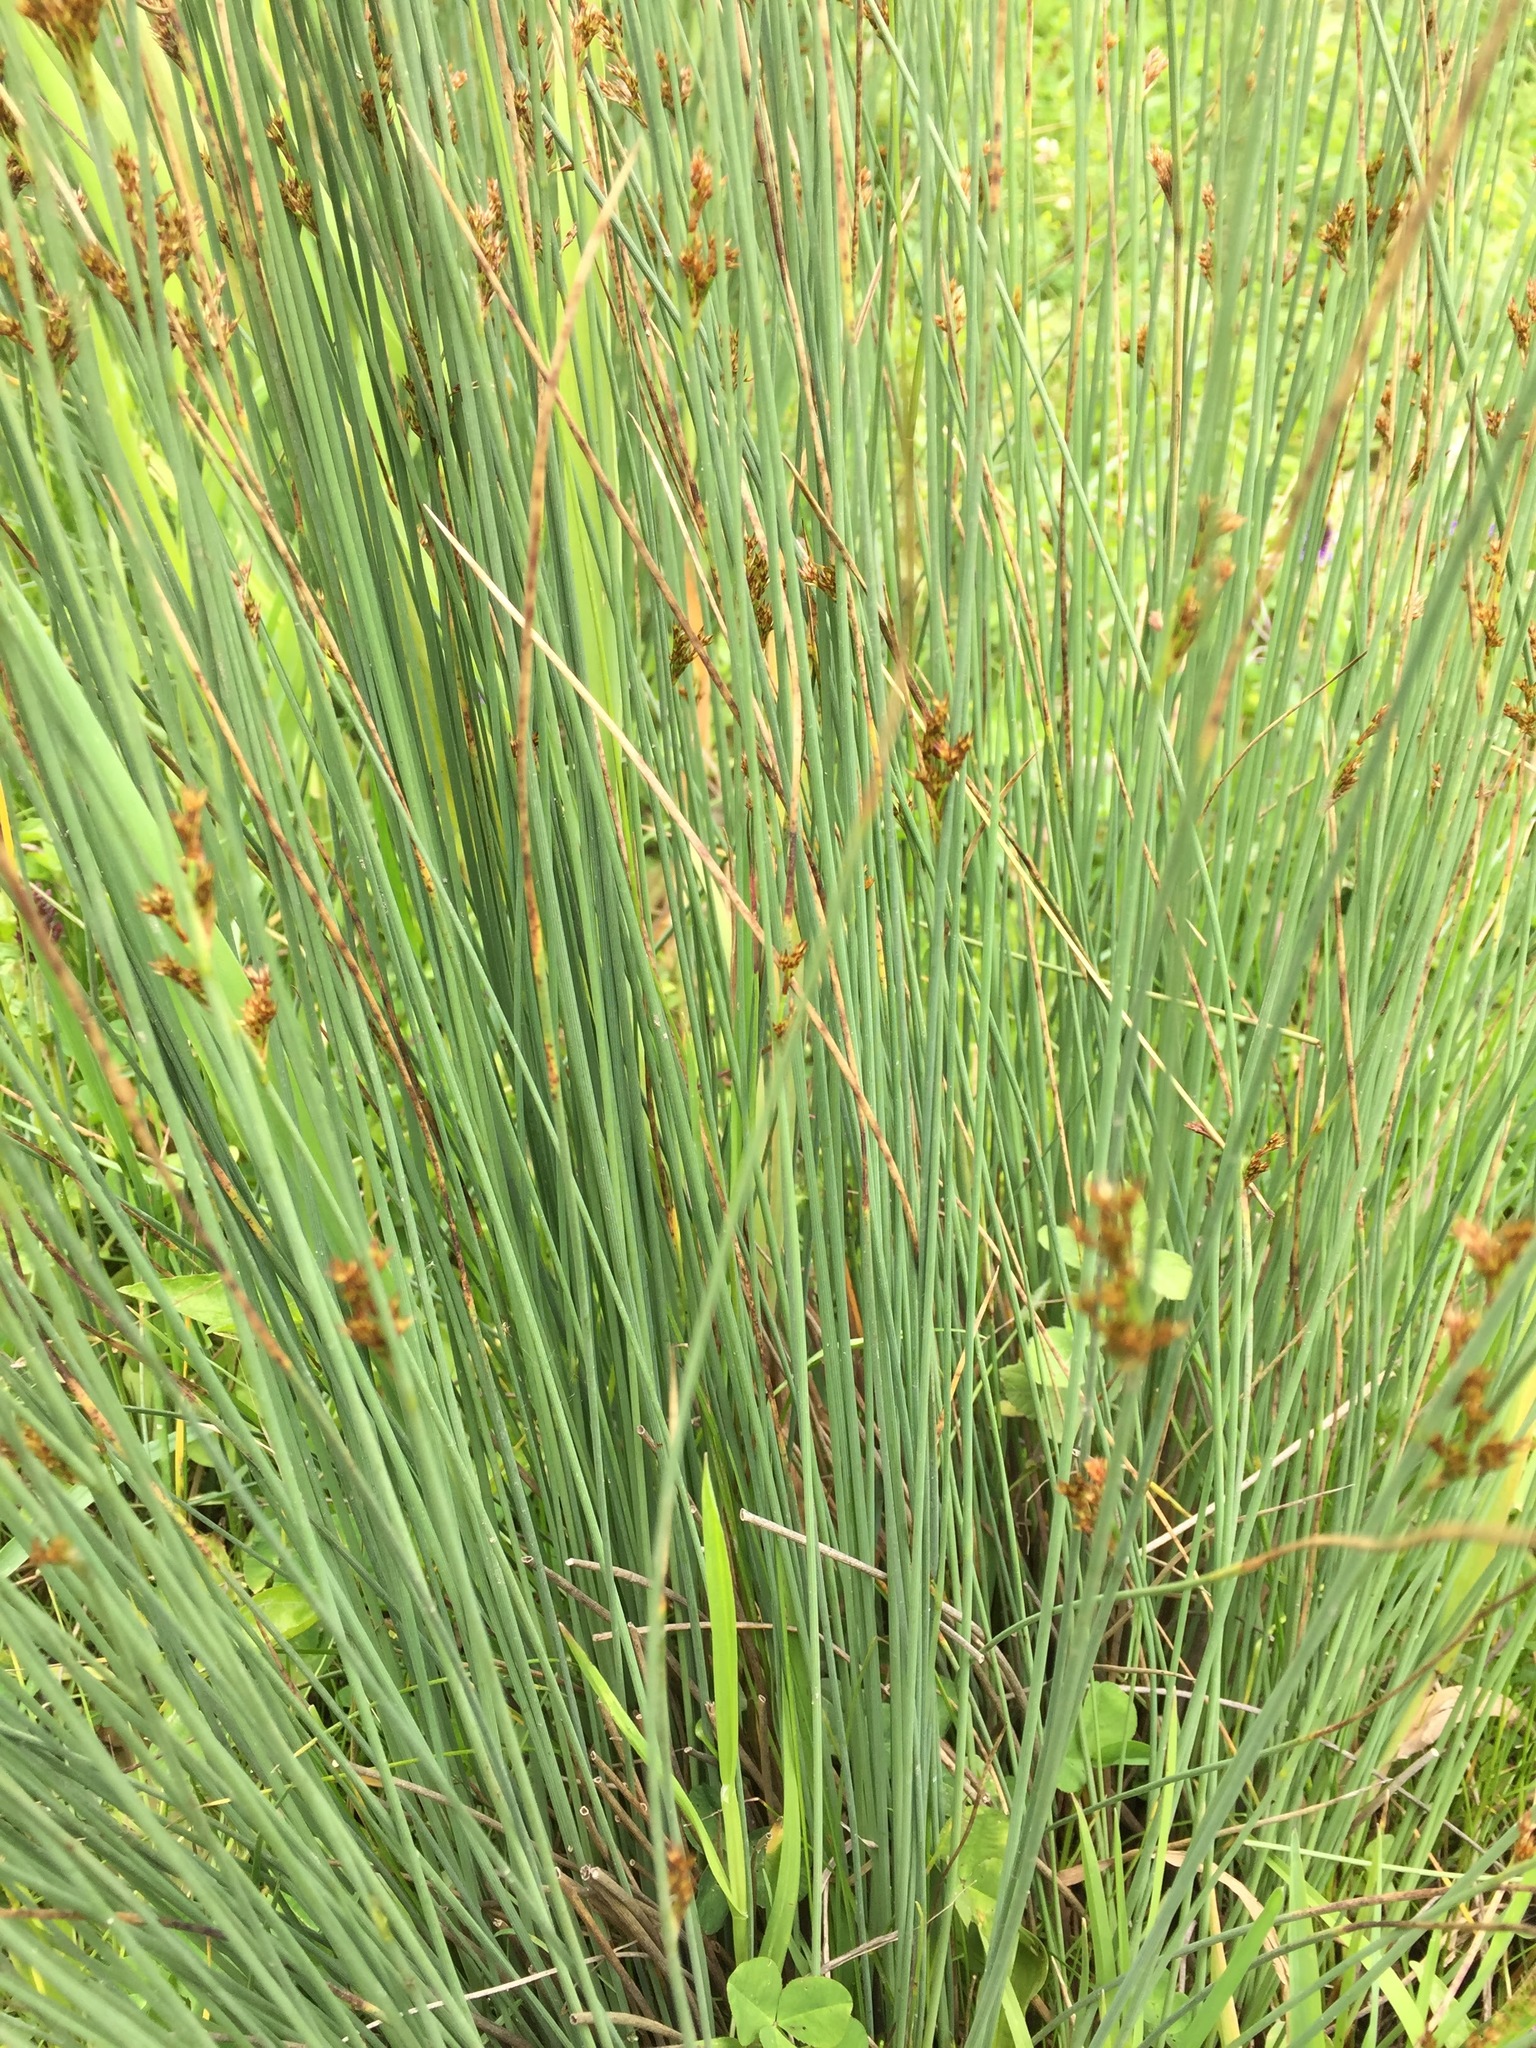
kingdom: Plantae
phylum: Tracheophyta
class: Liliopsida
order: Poales
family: Juncaceae
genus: Juncus
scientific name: Juncus inflexus
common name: Hard rush
